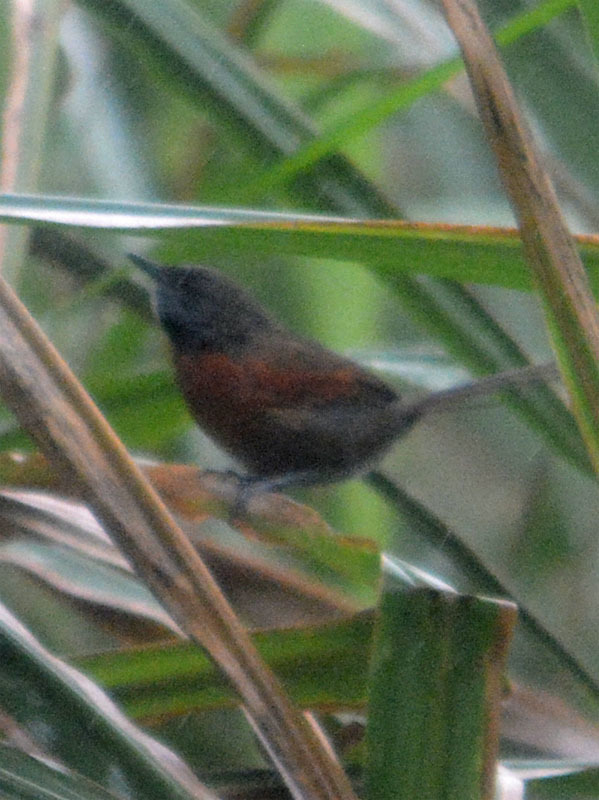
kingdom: Animalia
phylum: Chordata
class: Aves
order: Passeriformes
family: Furnariidae
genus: Synallaxis
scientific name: Synallaxis erythrothorax
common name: Rufous-breasted spinetail
